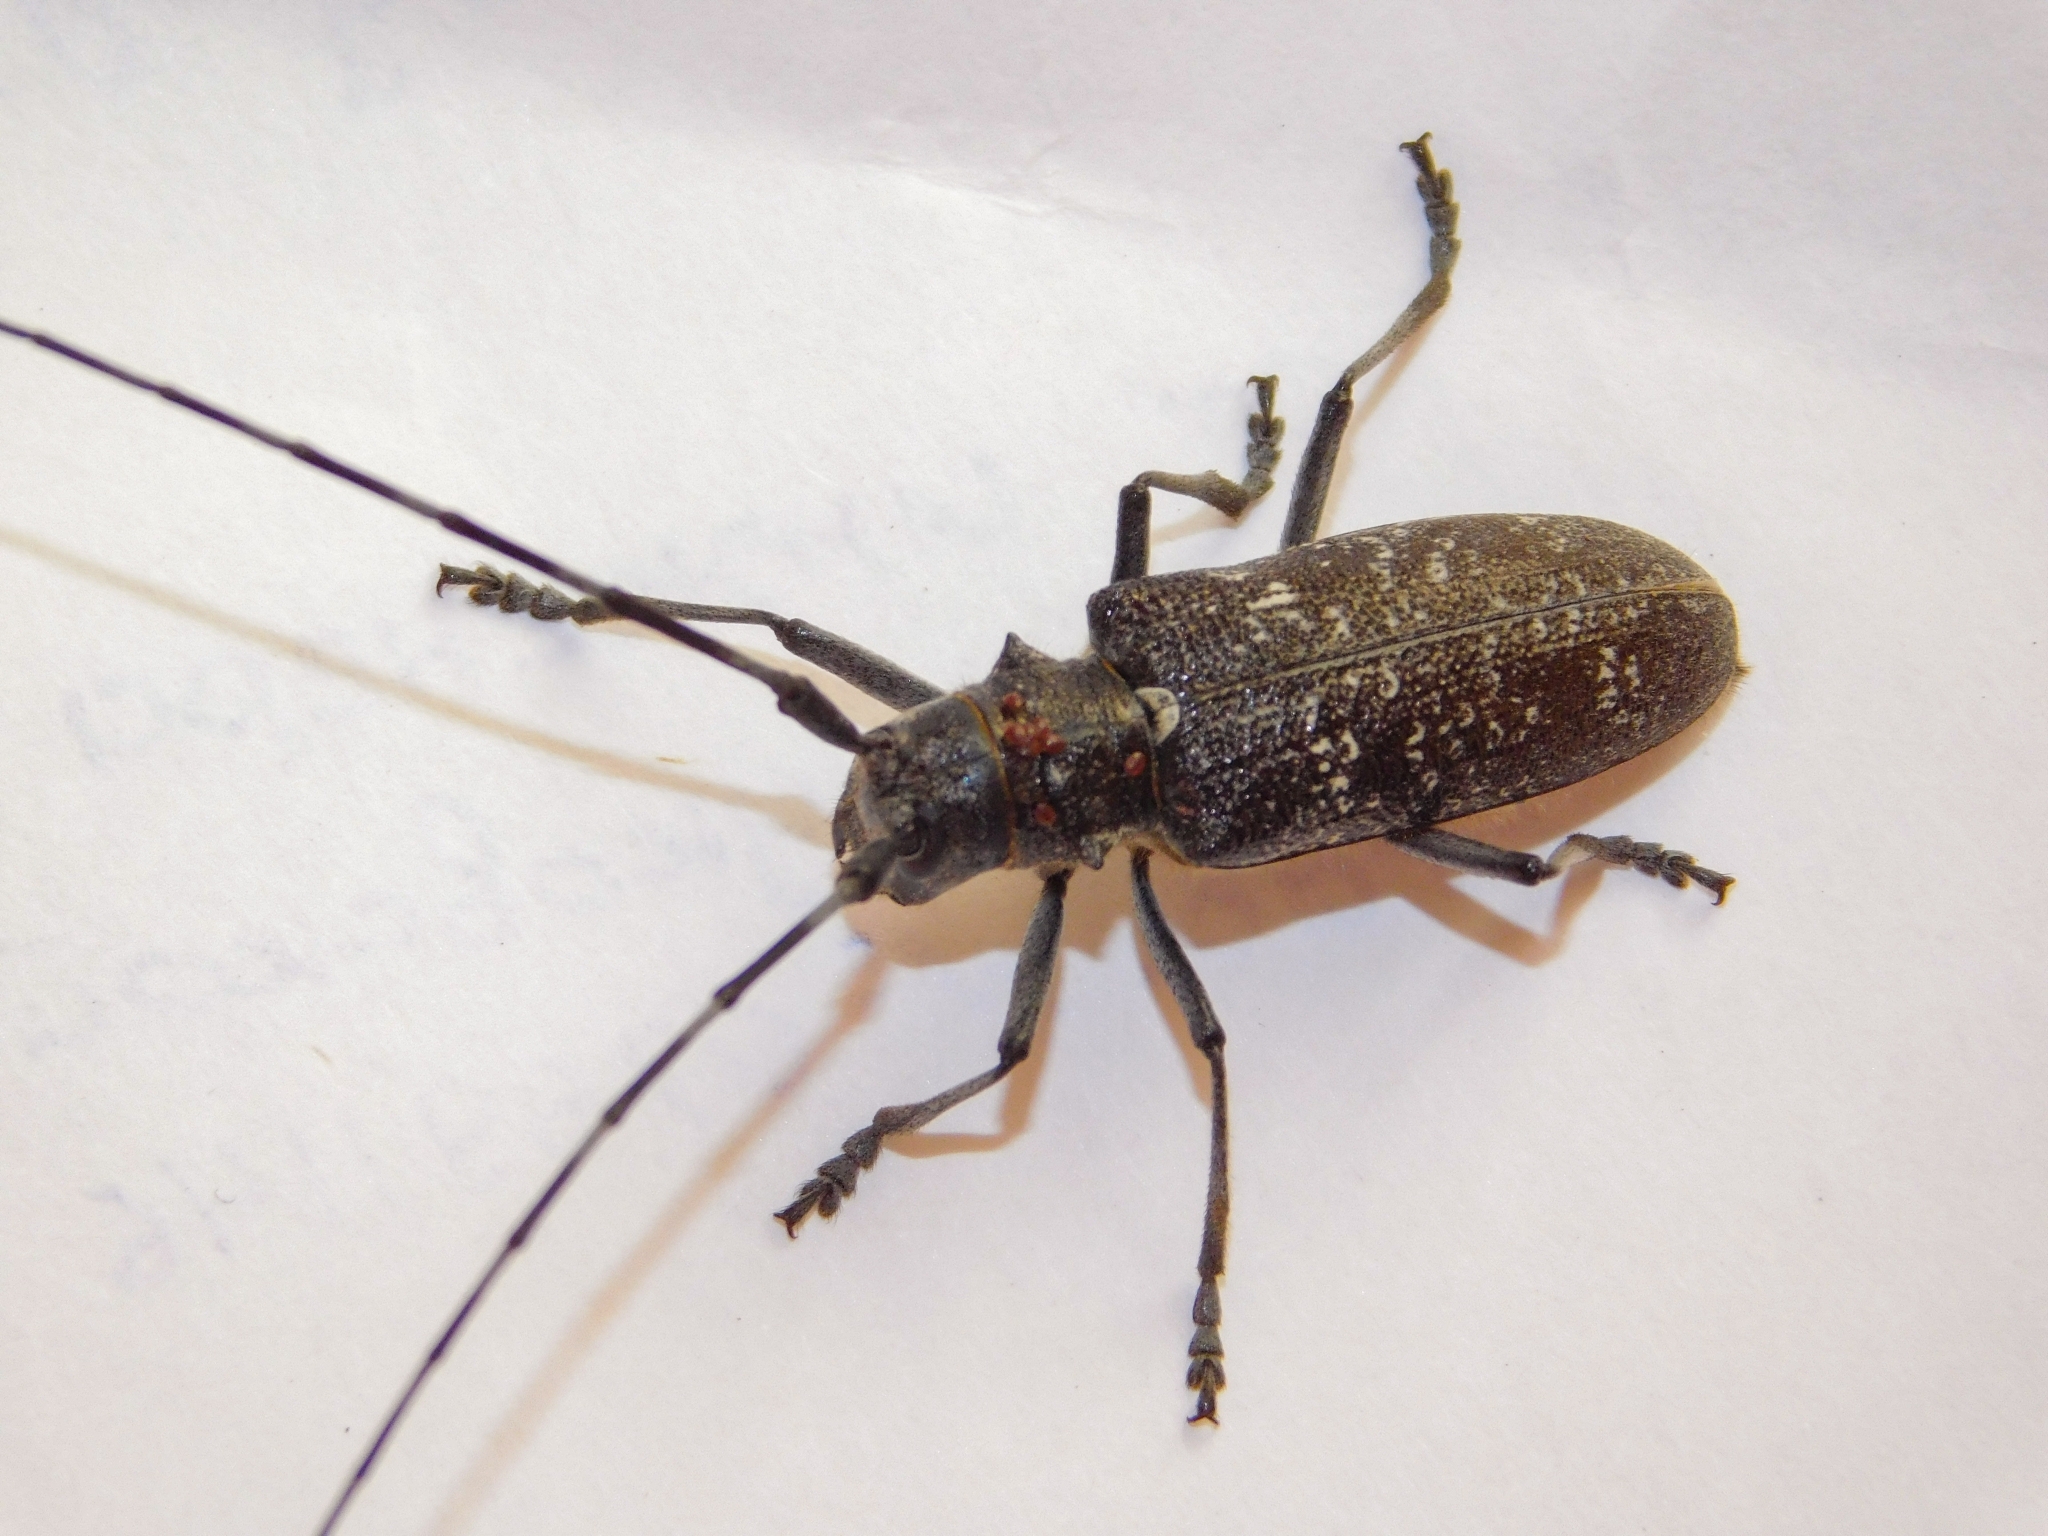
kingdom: Animalia
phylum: Arthropoda
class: Insecta
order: Coleoptera
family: Cerambycidae
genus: Monochamus
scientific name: Monochamus sutor
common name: Pine sawyer
